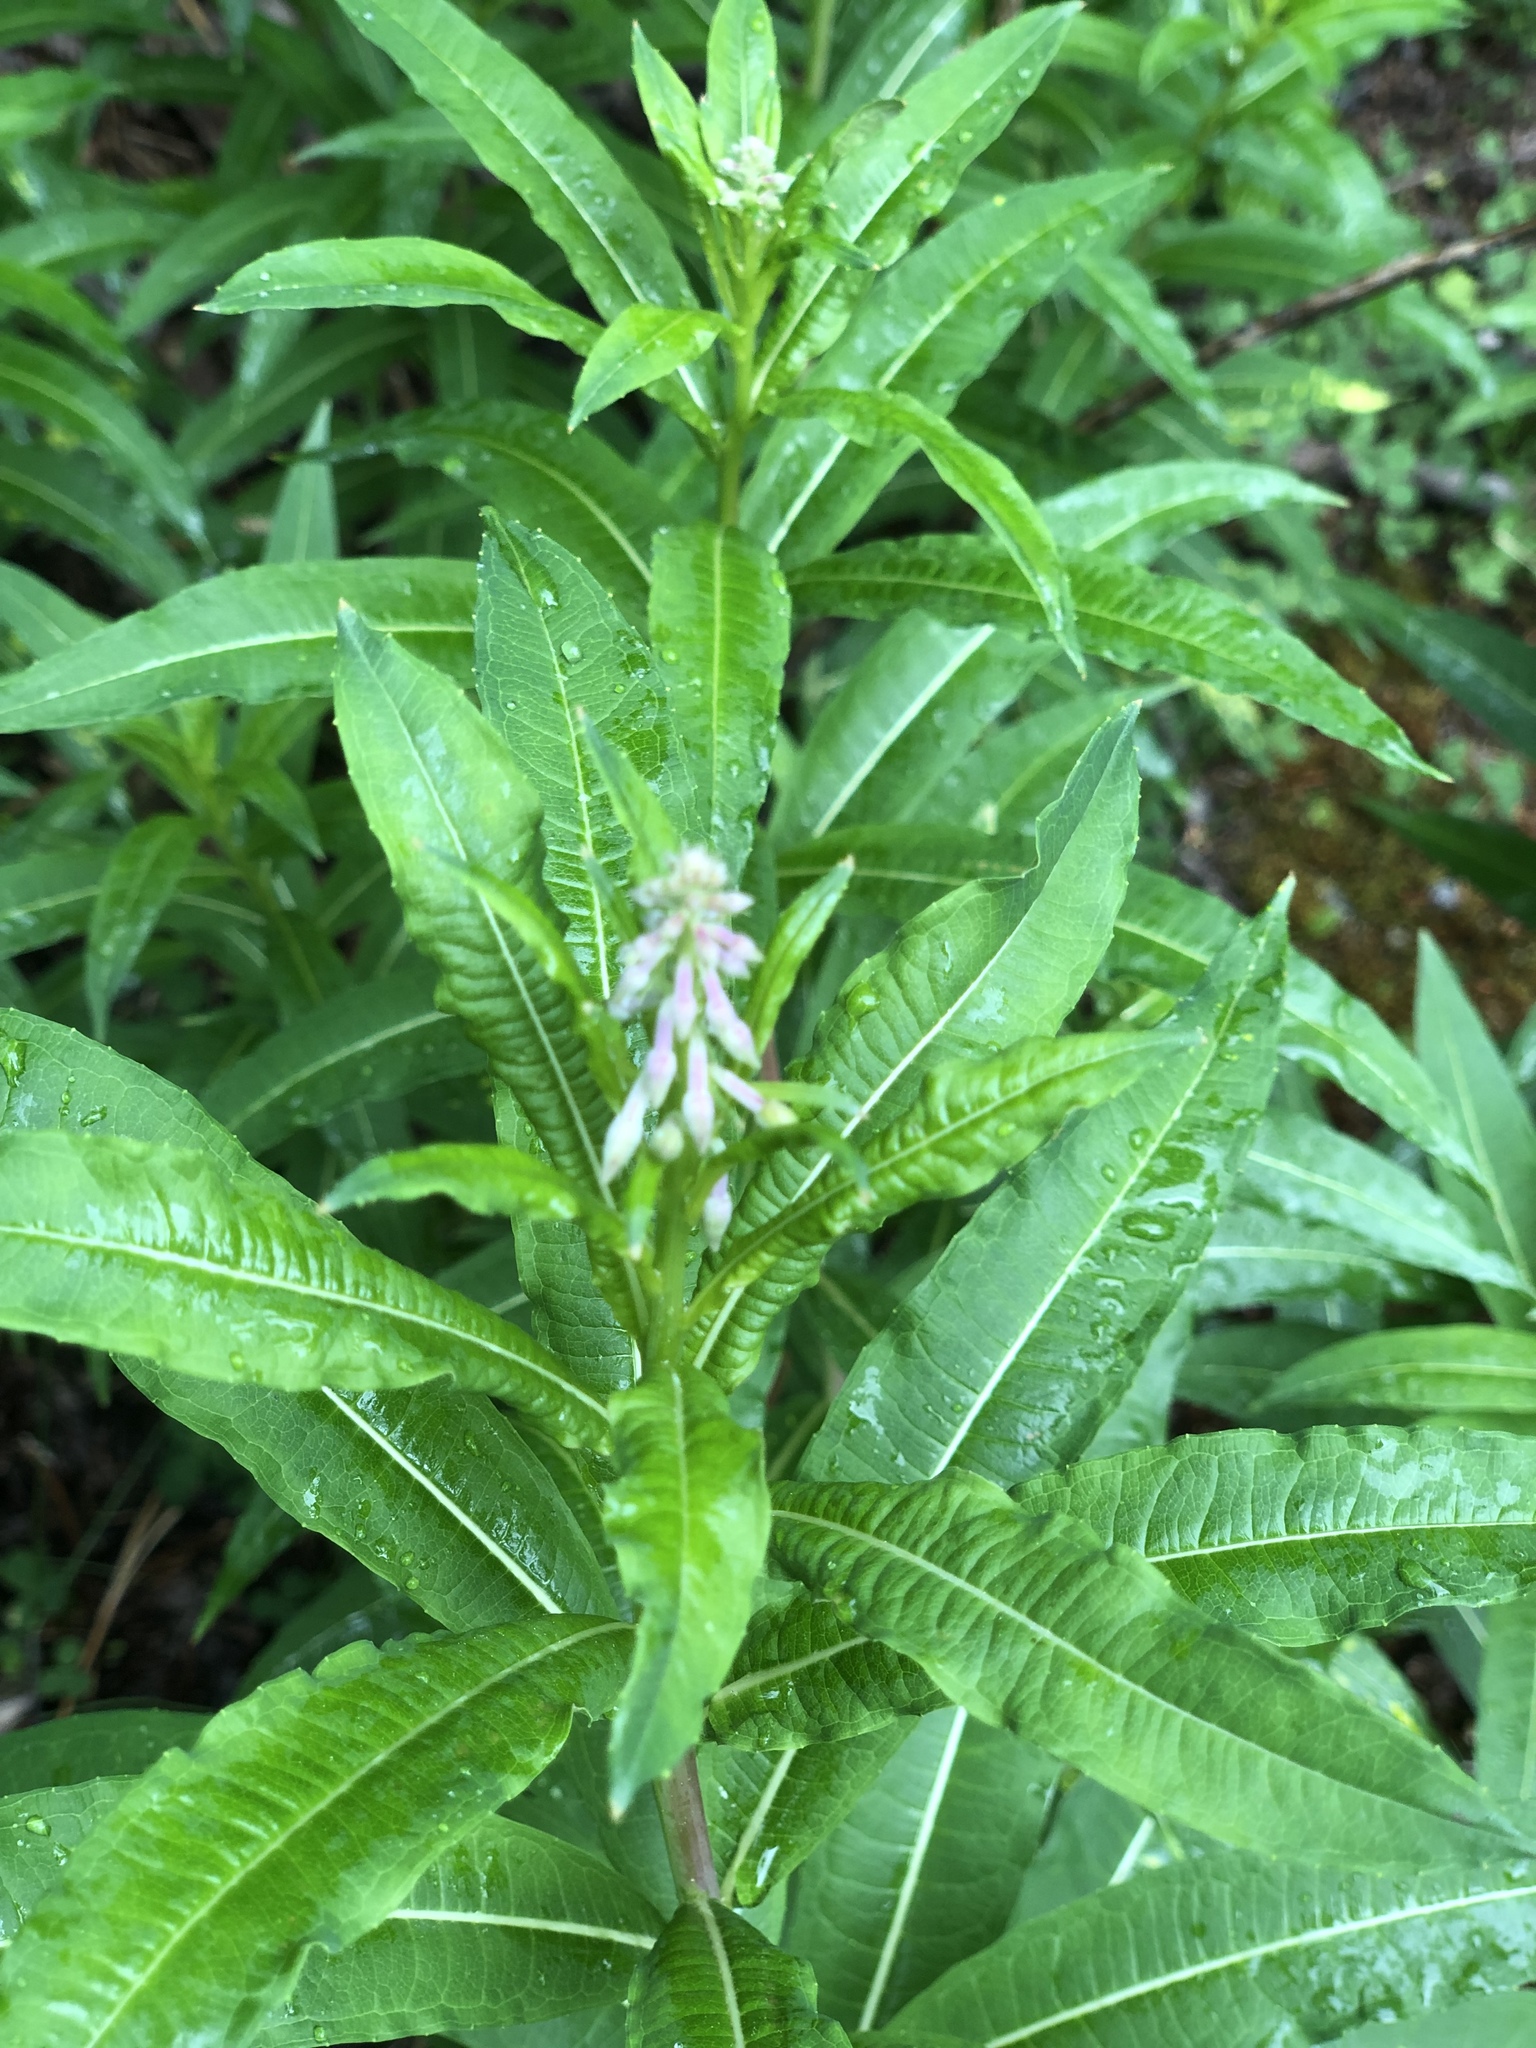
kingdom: Plantae
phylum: Tracheophyta
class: Magnoliopsida
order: Myrtales
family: Onagraceae
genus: Chamaenerion
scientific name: Chamaenerion angustifolium
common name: Fireweed
